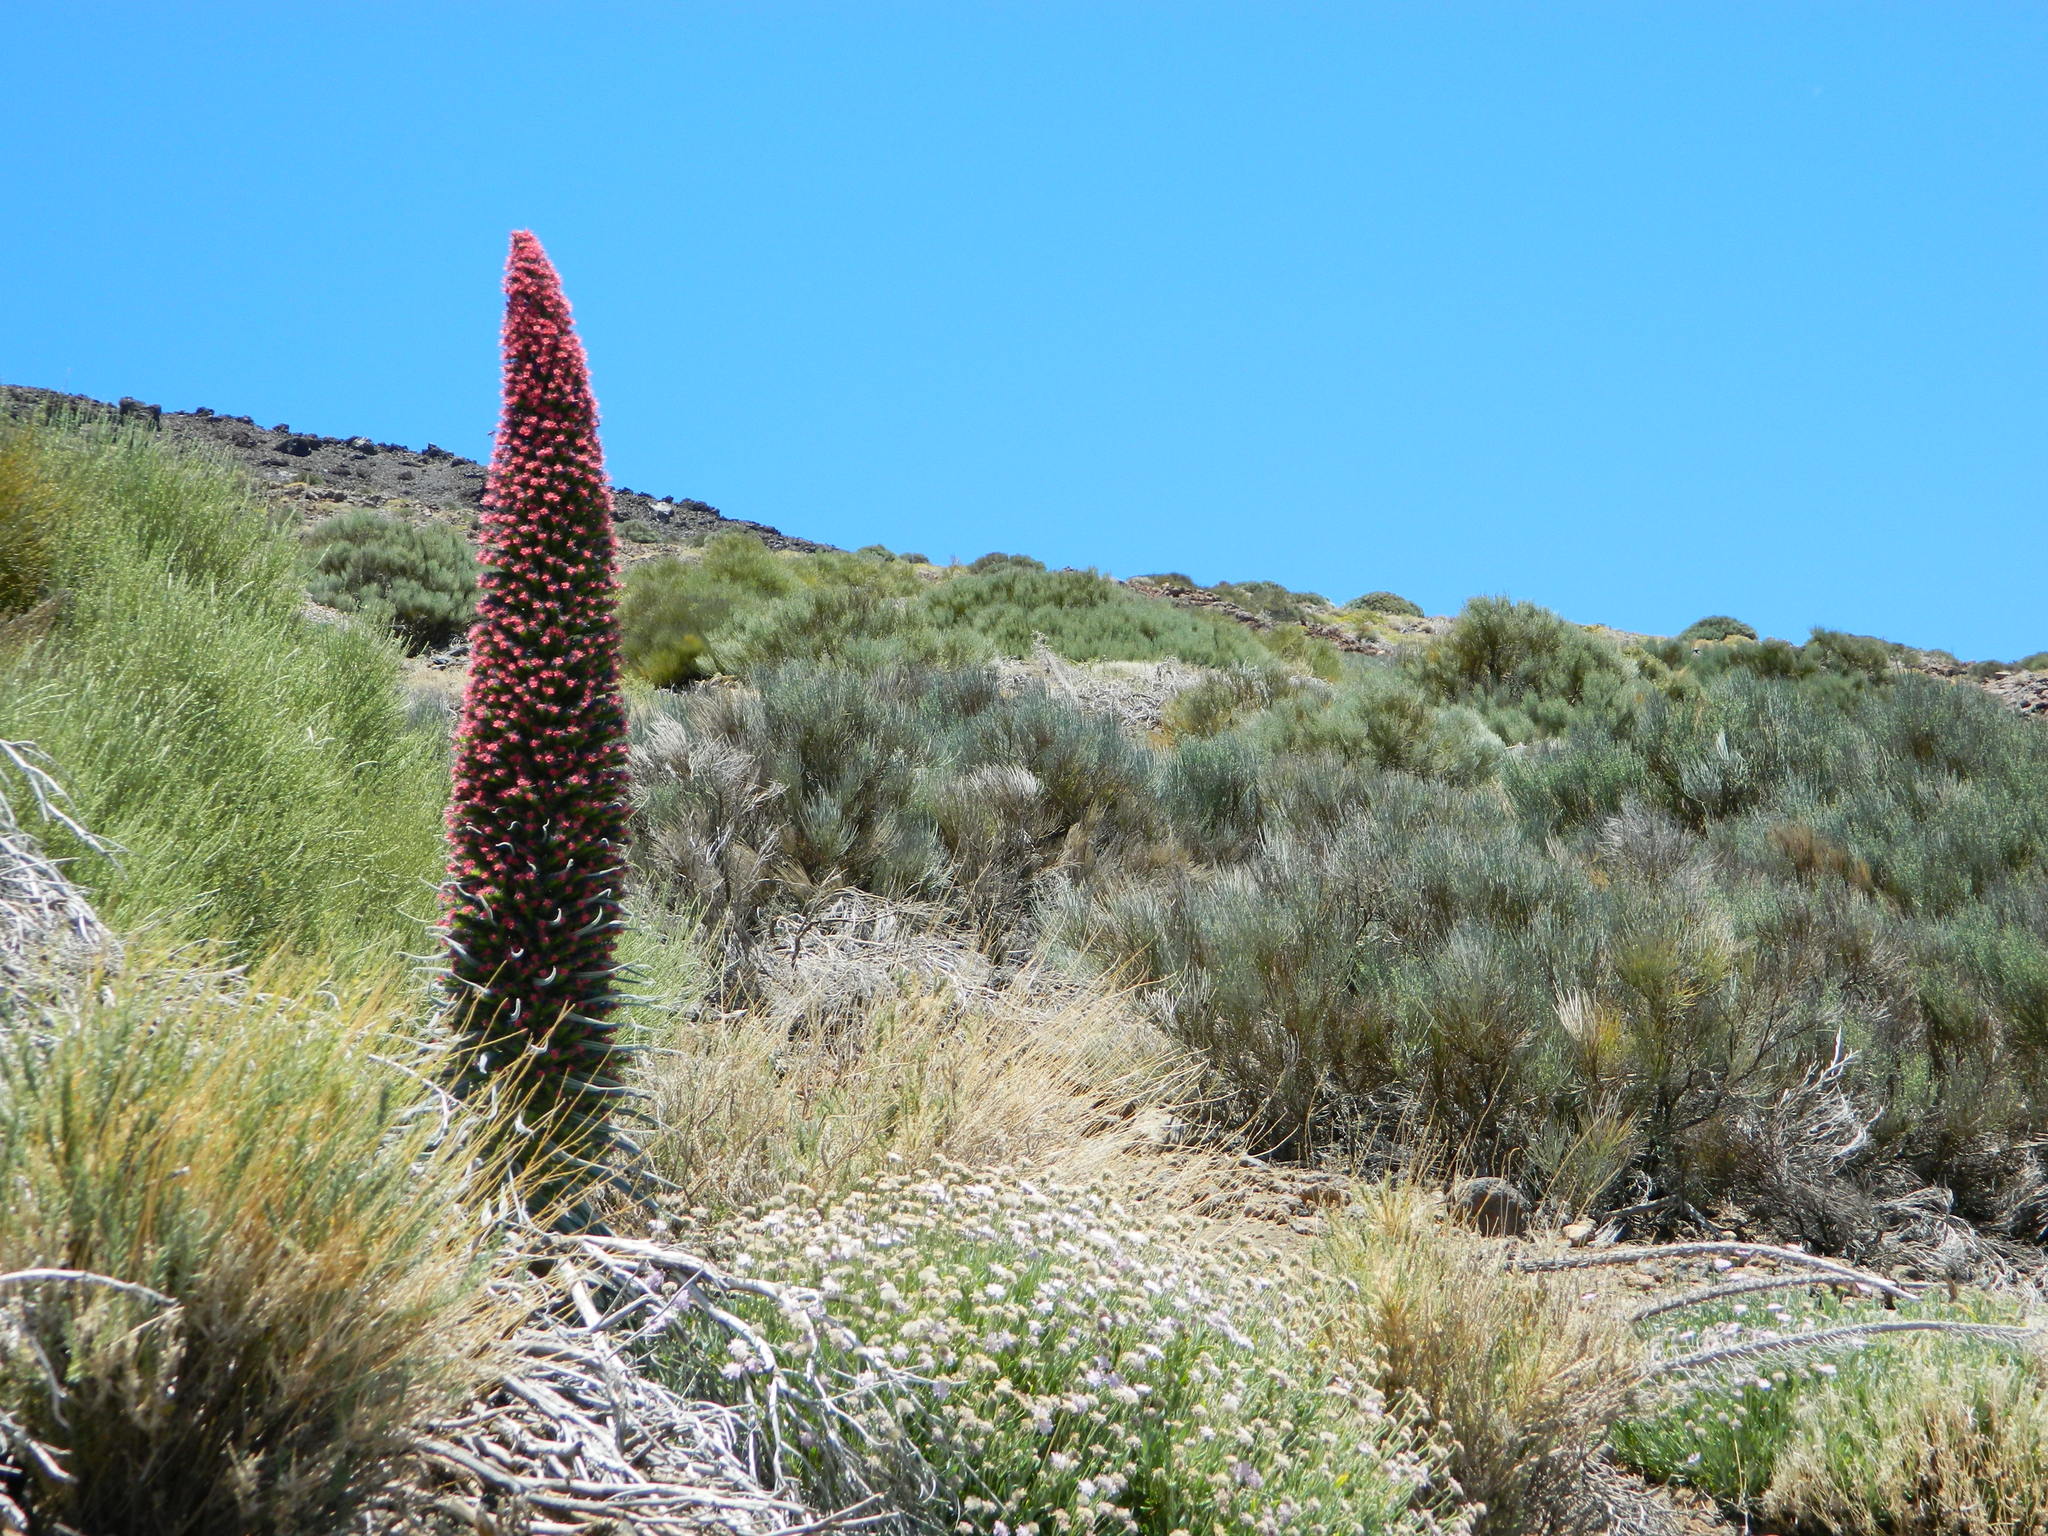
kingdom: Plantae
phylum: Tracheophyta
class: Magnoliopsida
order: Boraginales
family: Boraginaceae
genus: Echium
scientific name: Echium wildpretii
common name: Tower-of-jewels
